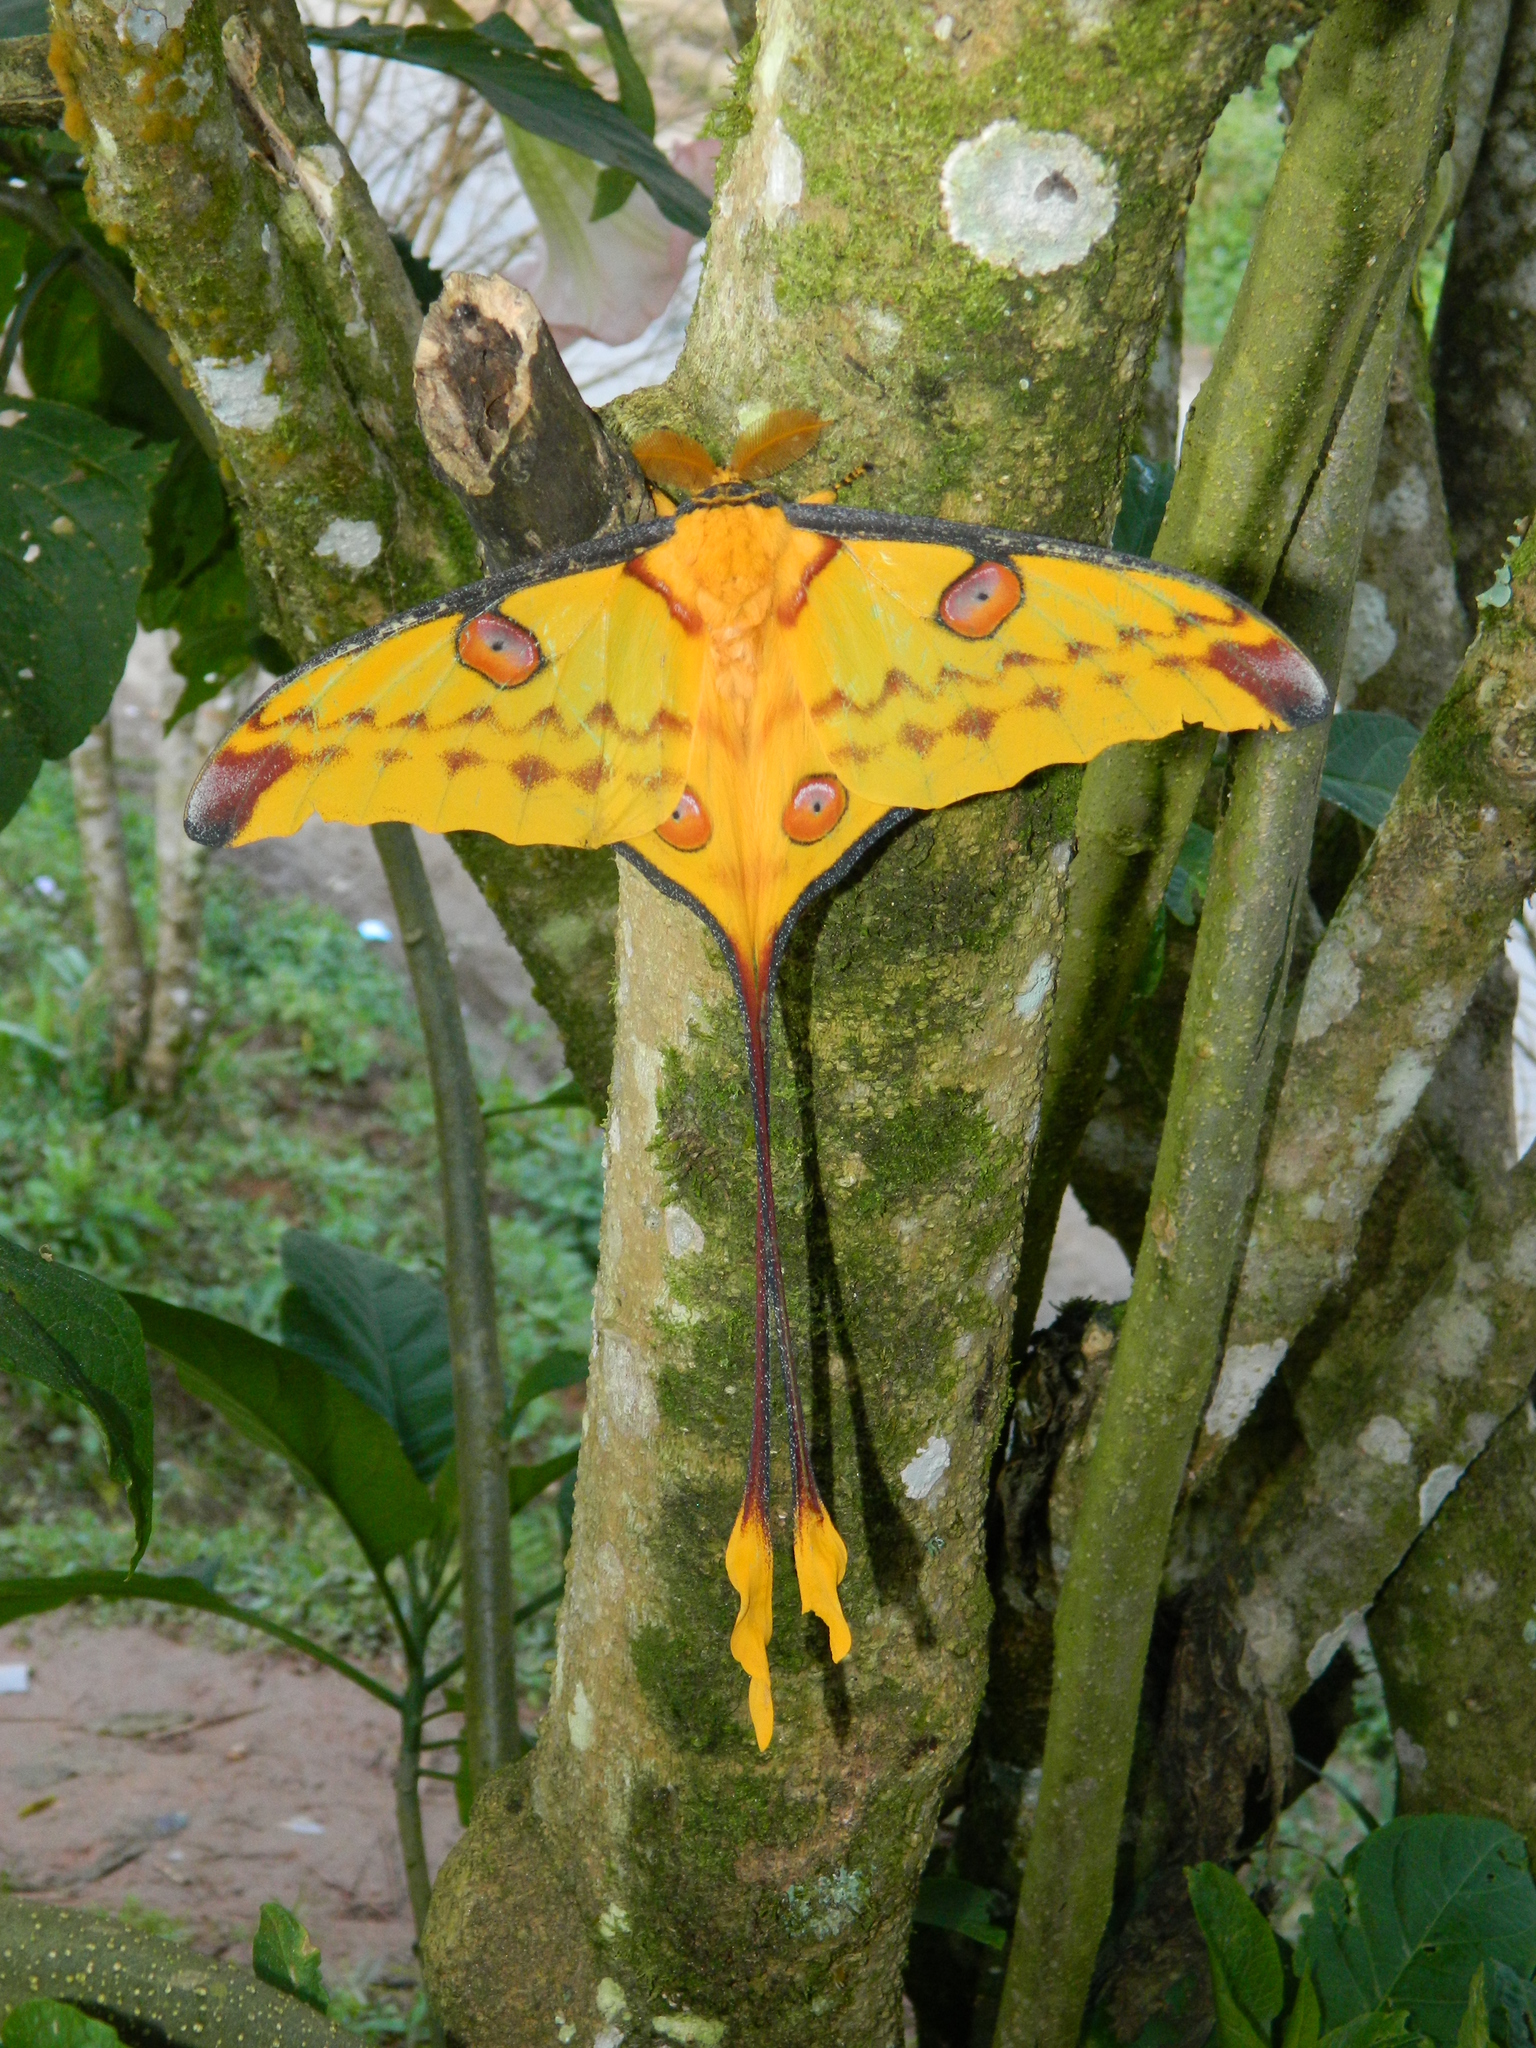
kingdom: Animalia
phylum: Arthropoda
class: Insecta
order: Lepidoptera
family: Saturniidae
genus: Argema
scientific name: Argema mittrei
